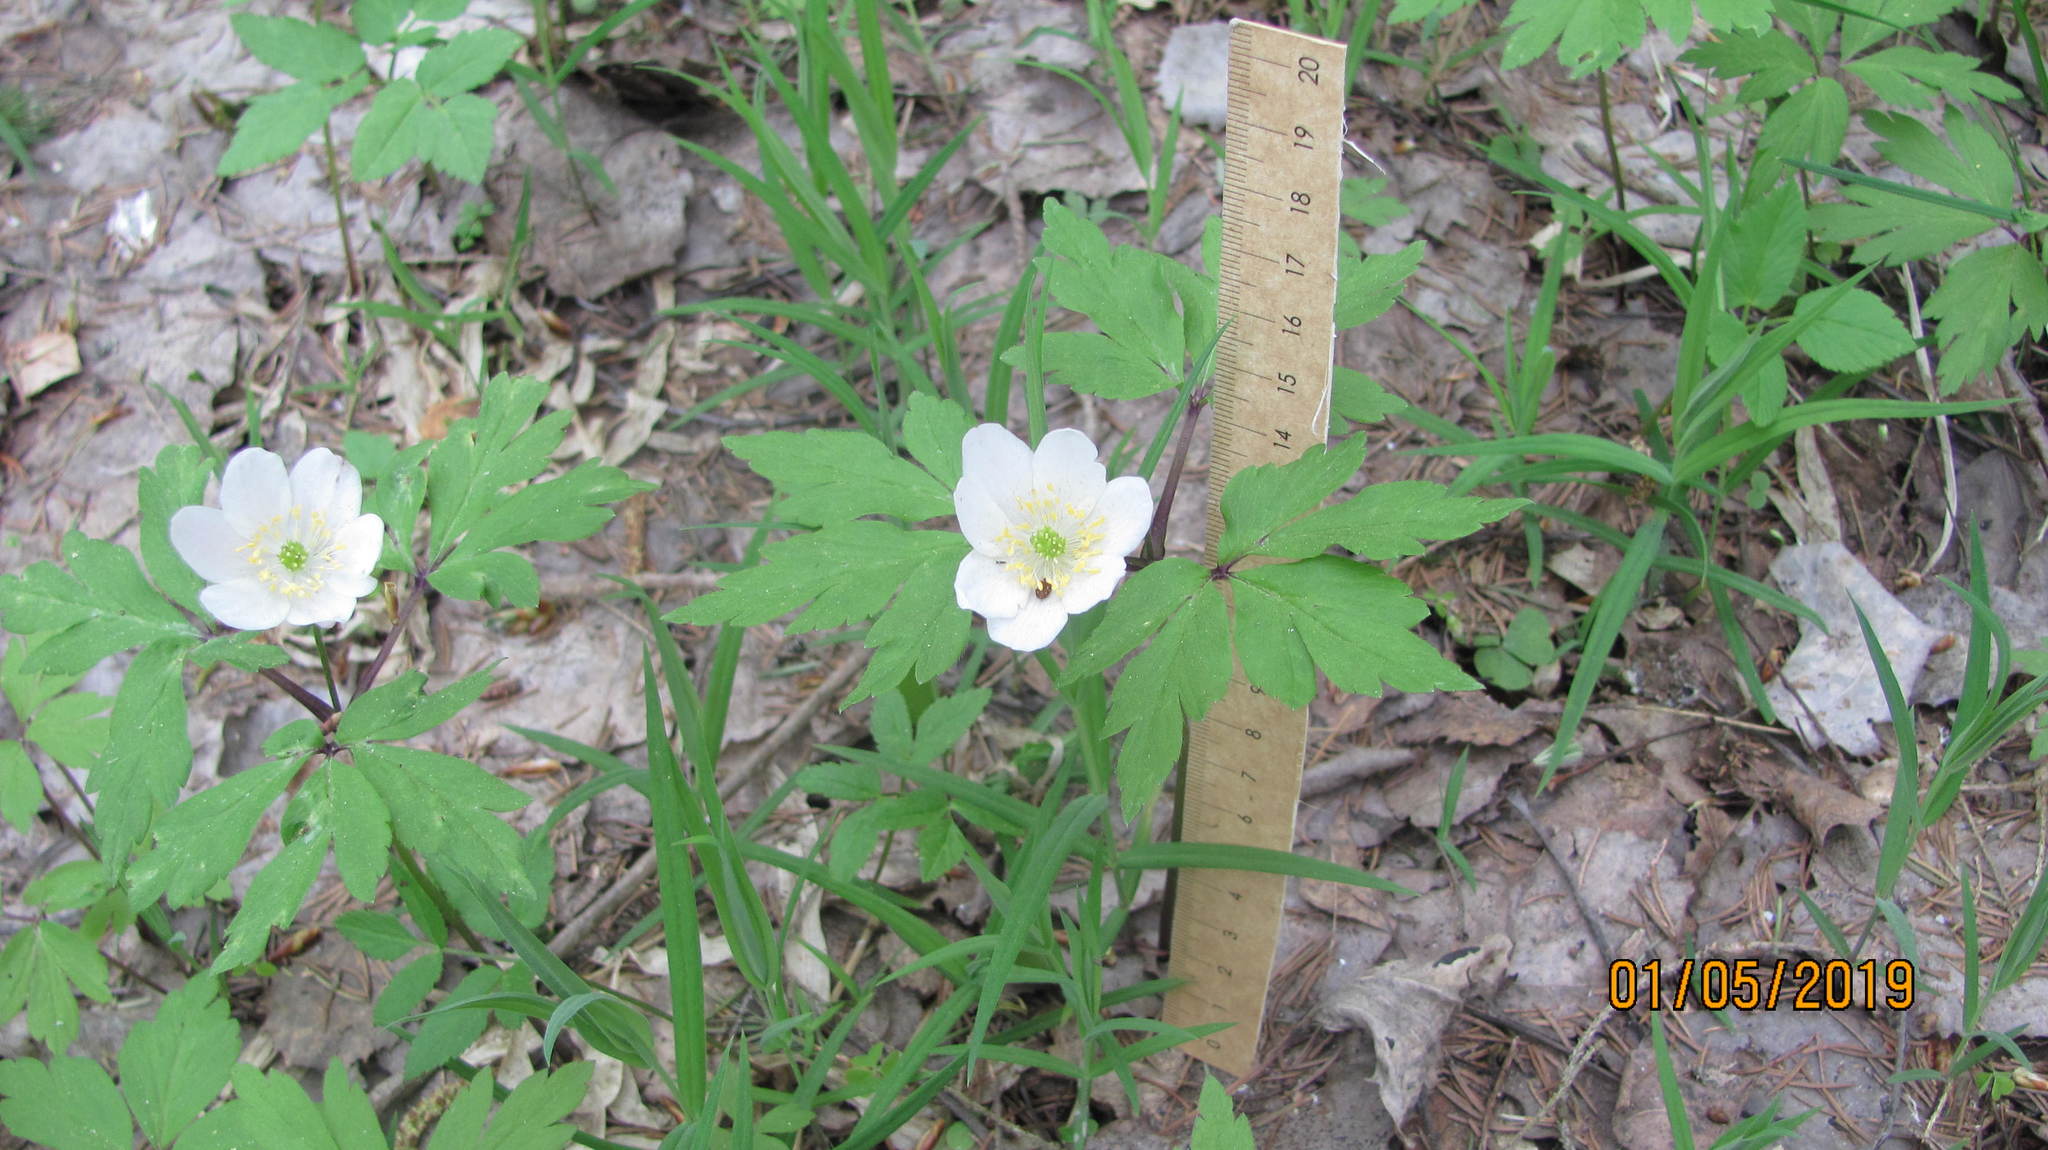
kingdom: Plantae
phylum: Tracheophyta
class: Magnoliopsida
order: Ranunculales
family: Ranunculaceae
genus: Anemone
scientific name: Anemone nemorosa
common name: Wood anemone
